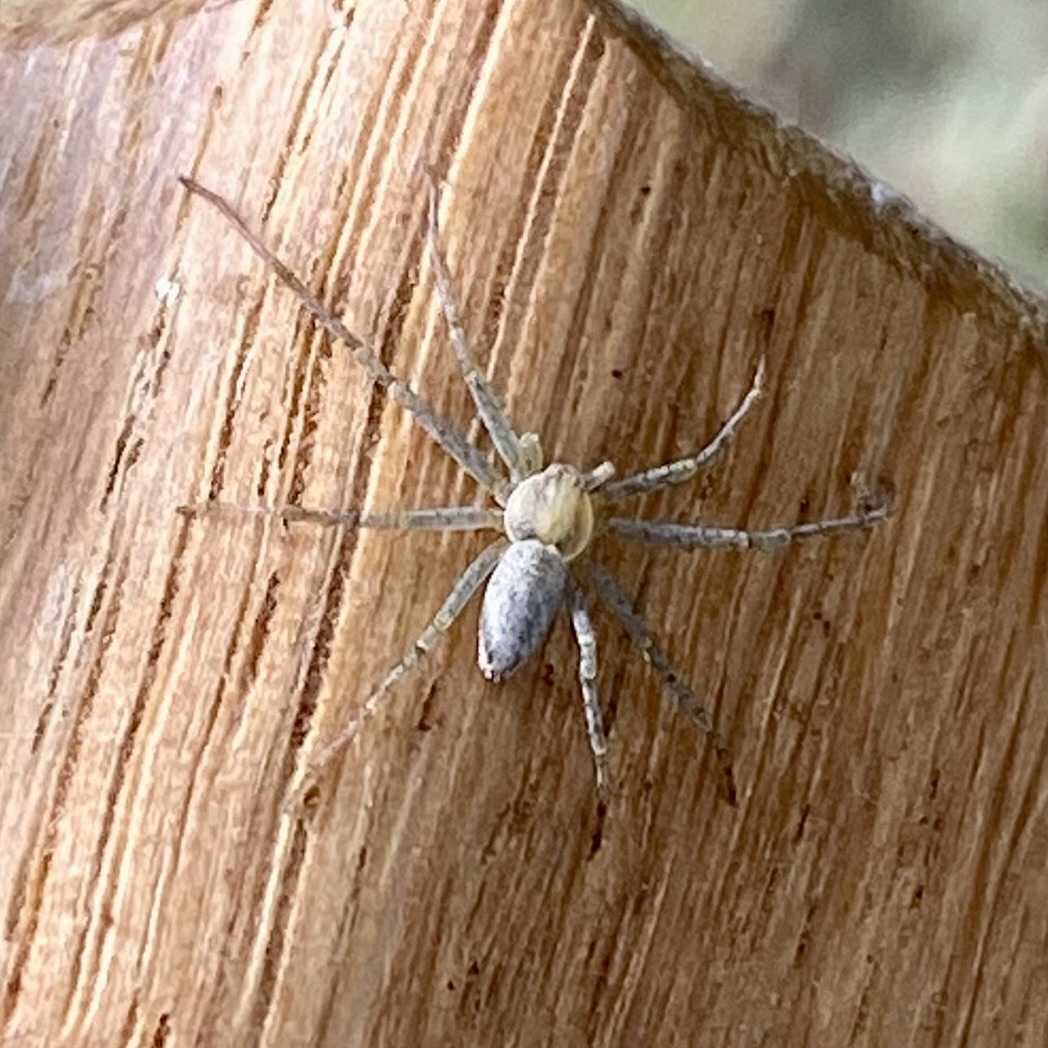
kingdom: Animalia
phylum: Arthropoda
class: Arachnida
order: Araneae
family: Philodromidae
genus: Philodromus
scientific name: Philodromus
